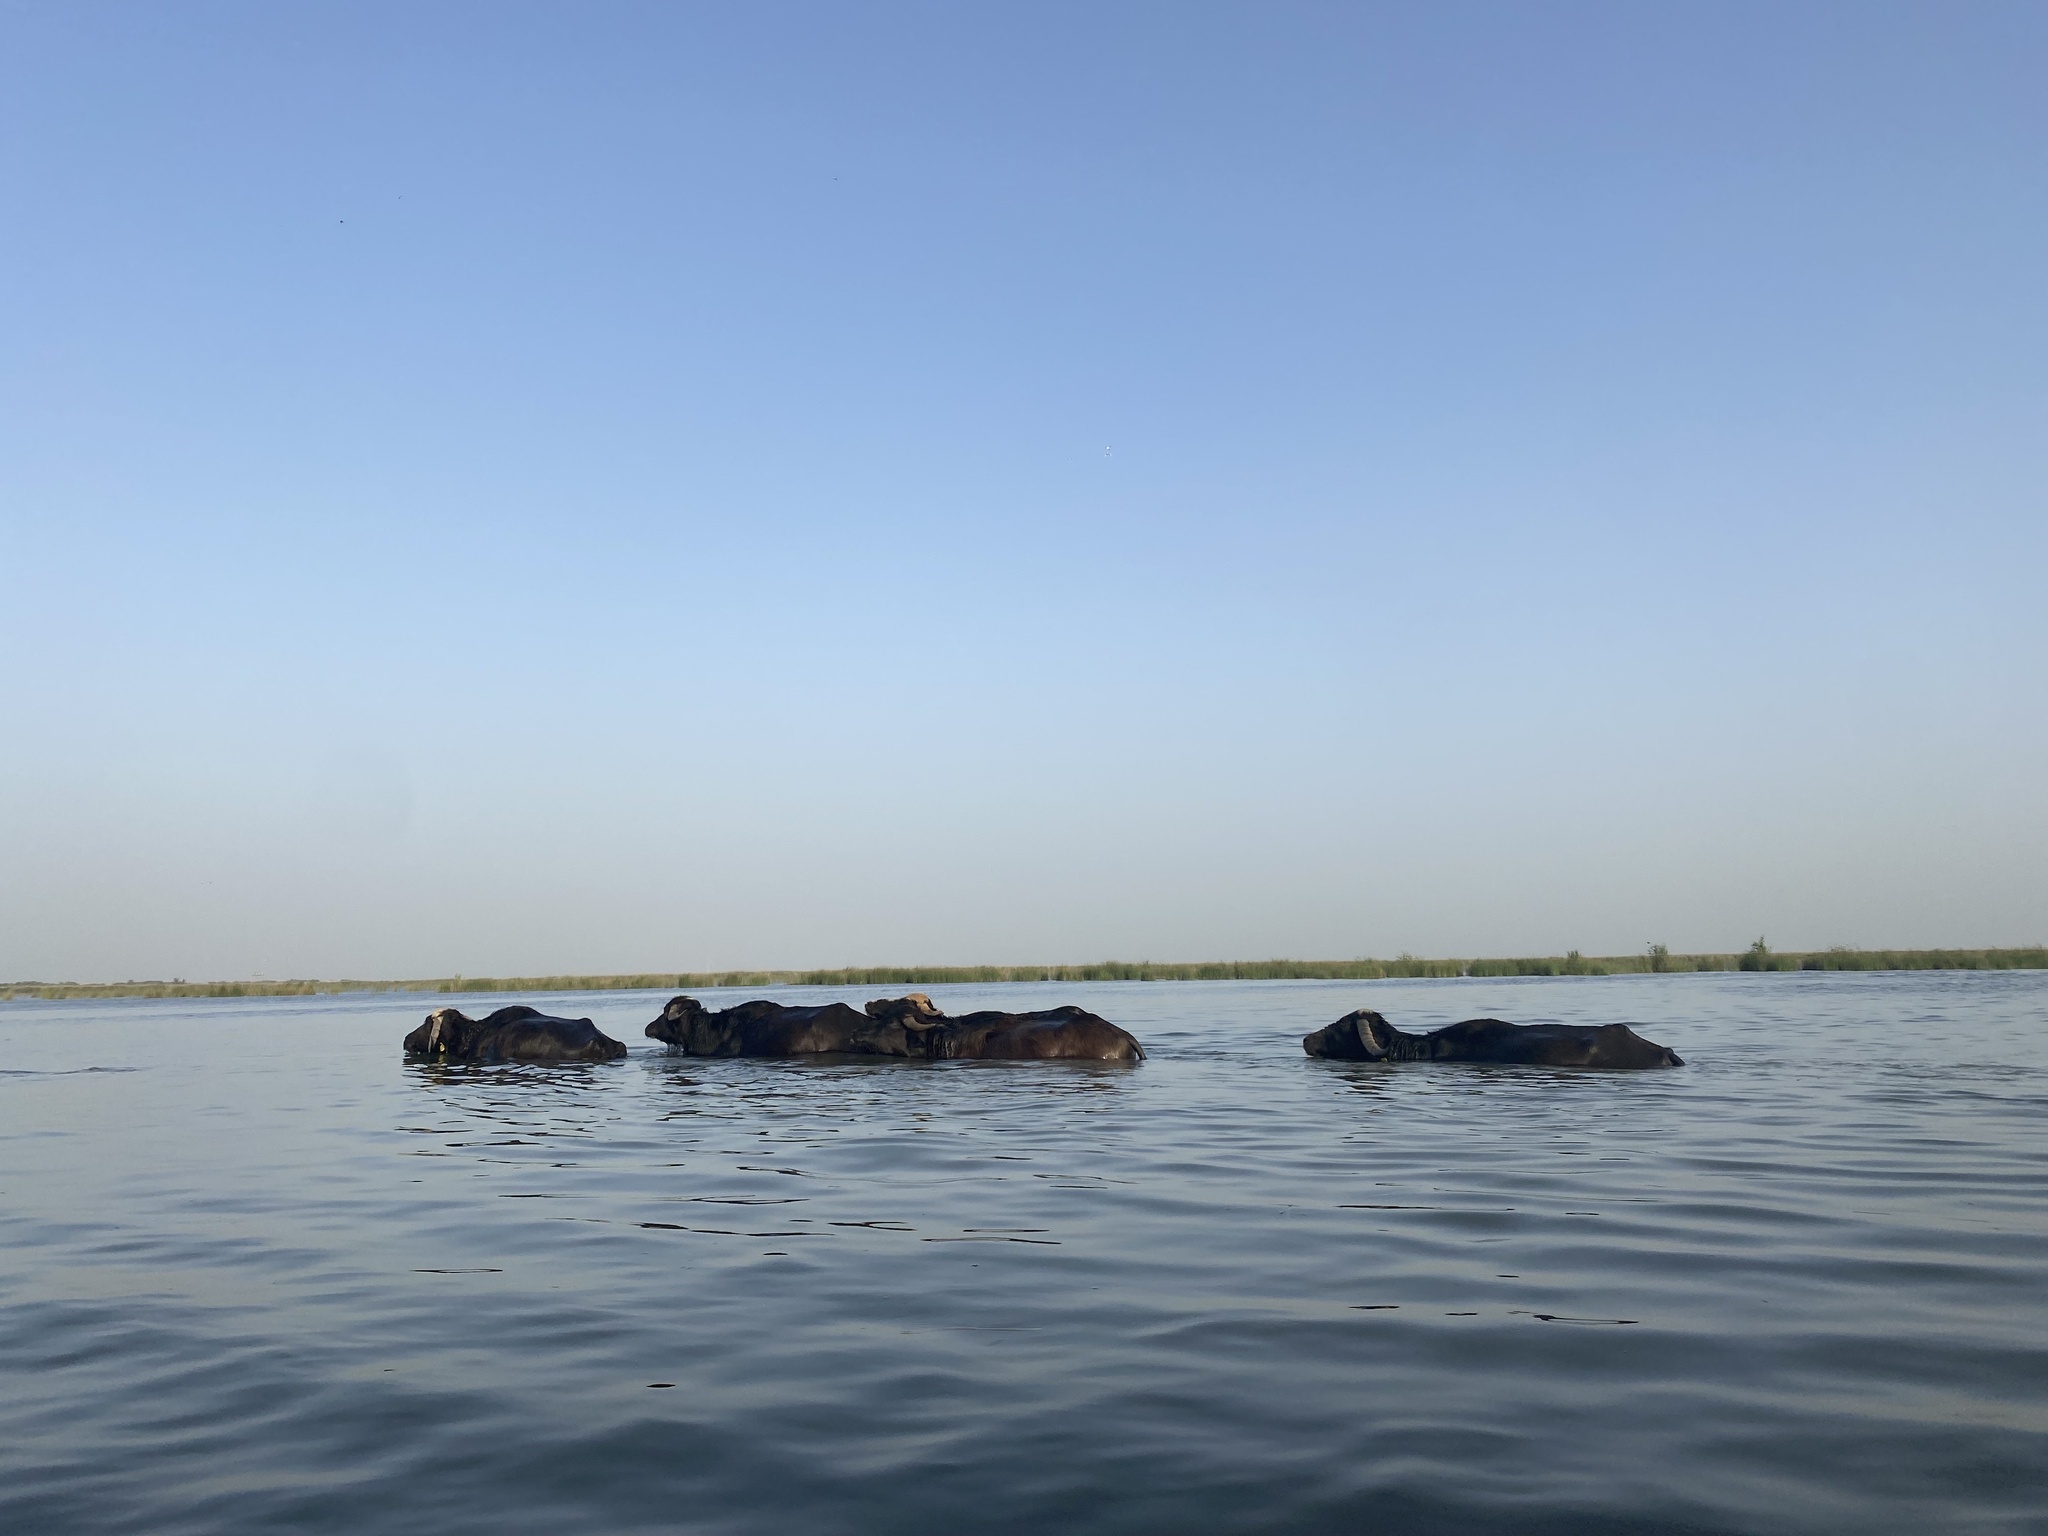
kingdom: Animalia
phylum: Chordata
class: Mammalia
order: Artiodactyla
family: Bovidae
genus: Bubalus
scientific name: Bubalus bubalis
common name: Water buffalo
